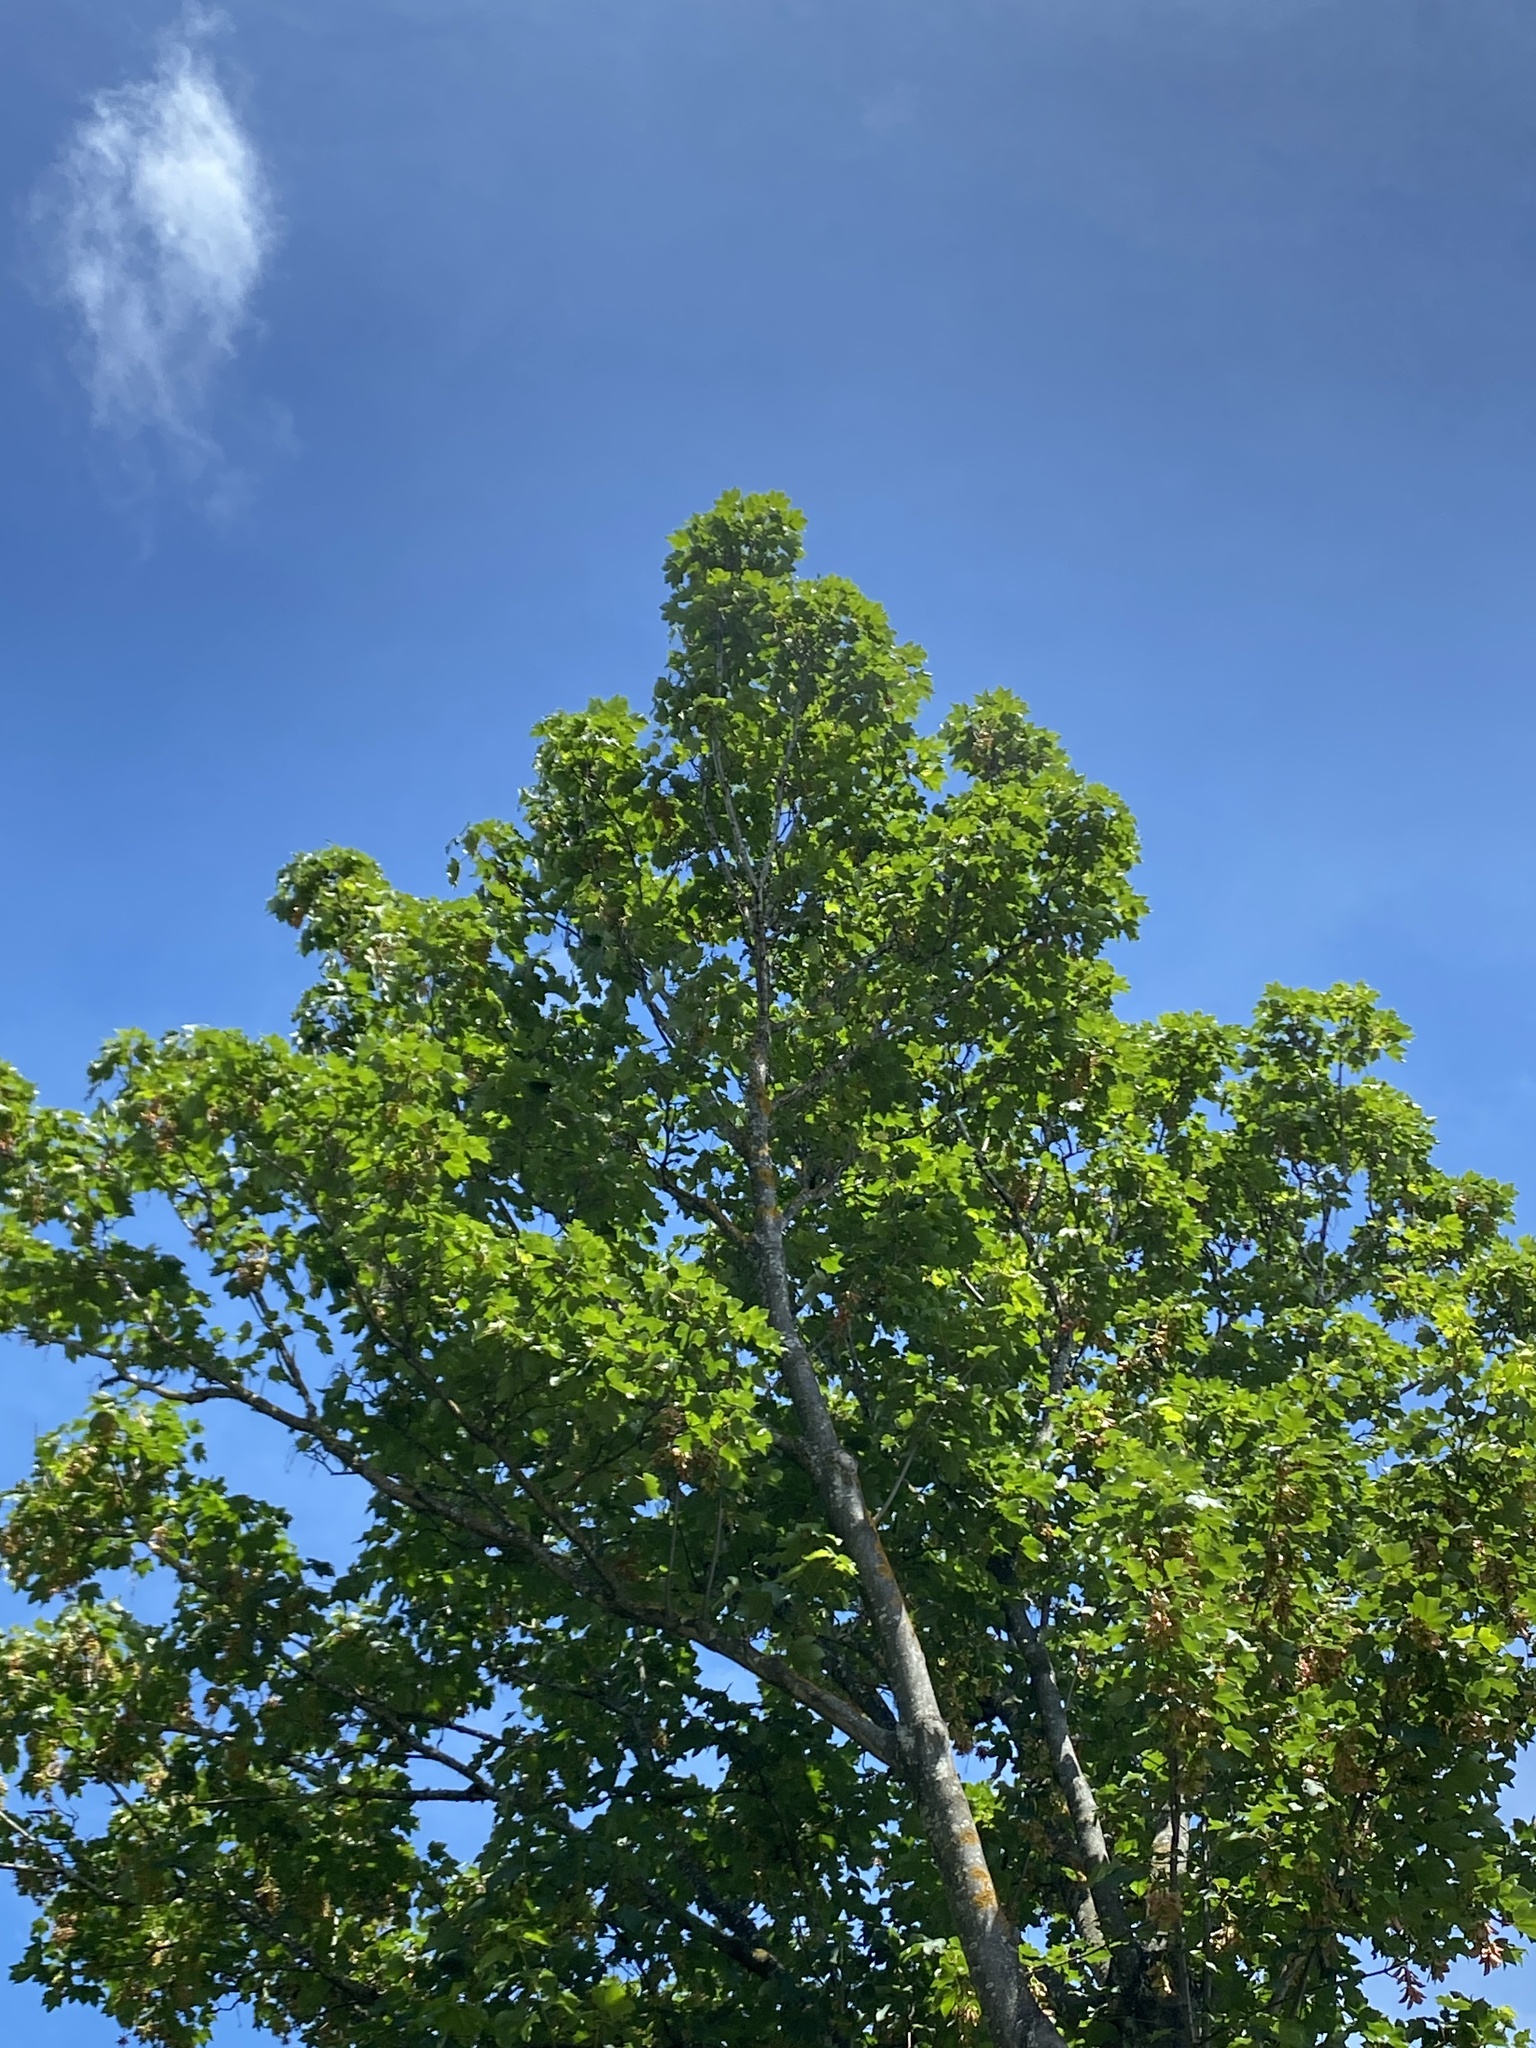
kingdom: Plantae
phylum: Tracheophyta
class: Magnoliopsida
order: Sapindales
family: Sapindaceae
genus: Acer
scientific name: Acer pseudoplatanus
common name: Sycamore
